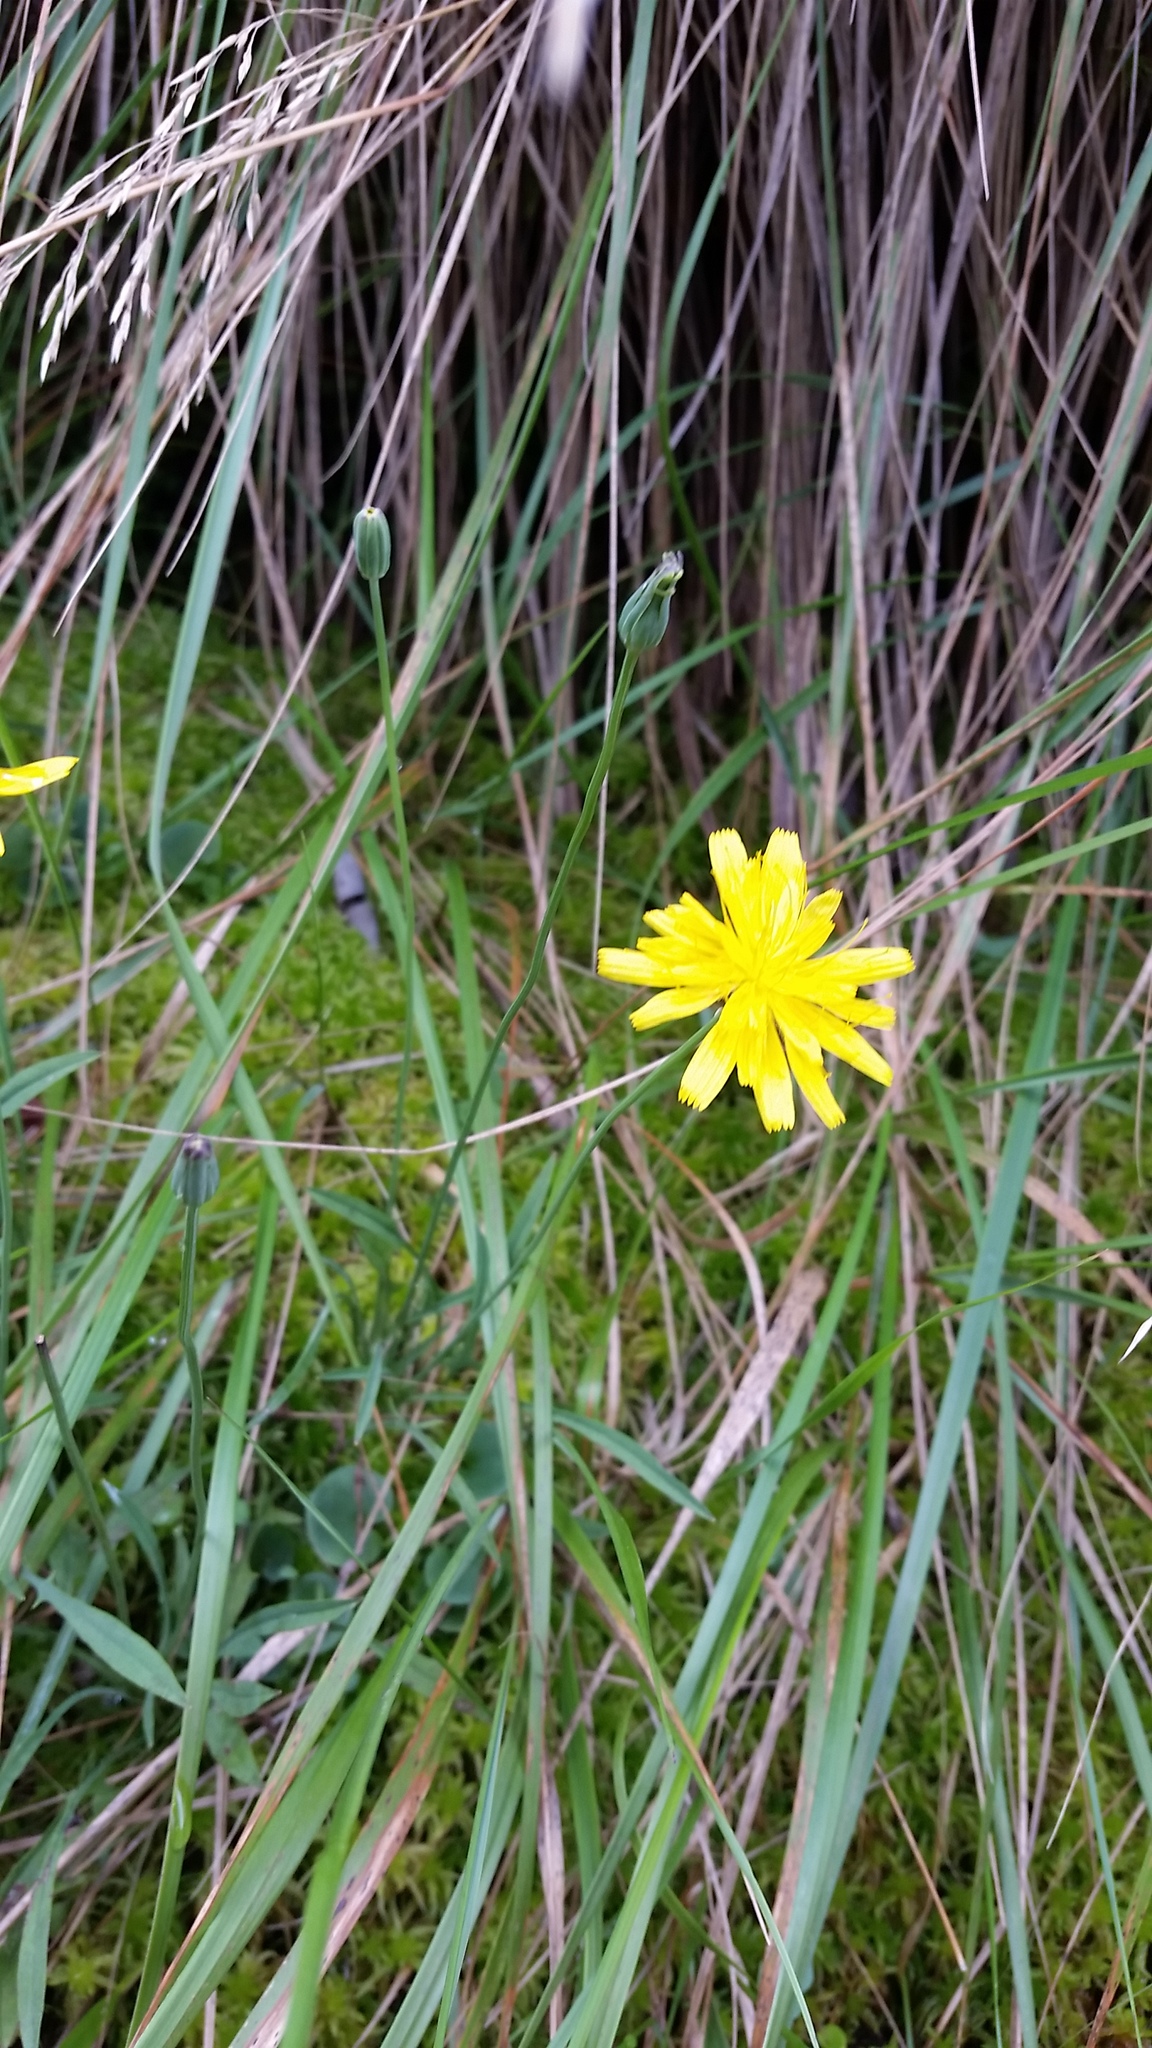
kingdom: Plantae
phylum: Tracheophyta
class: Magnoliopsida
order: Asterales
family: Asteraceae
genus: Krigia
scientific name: Krigia montana
